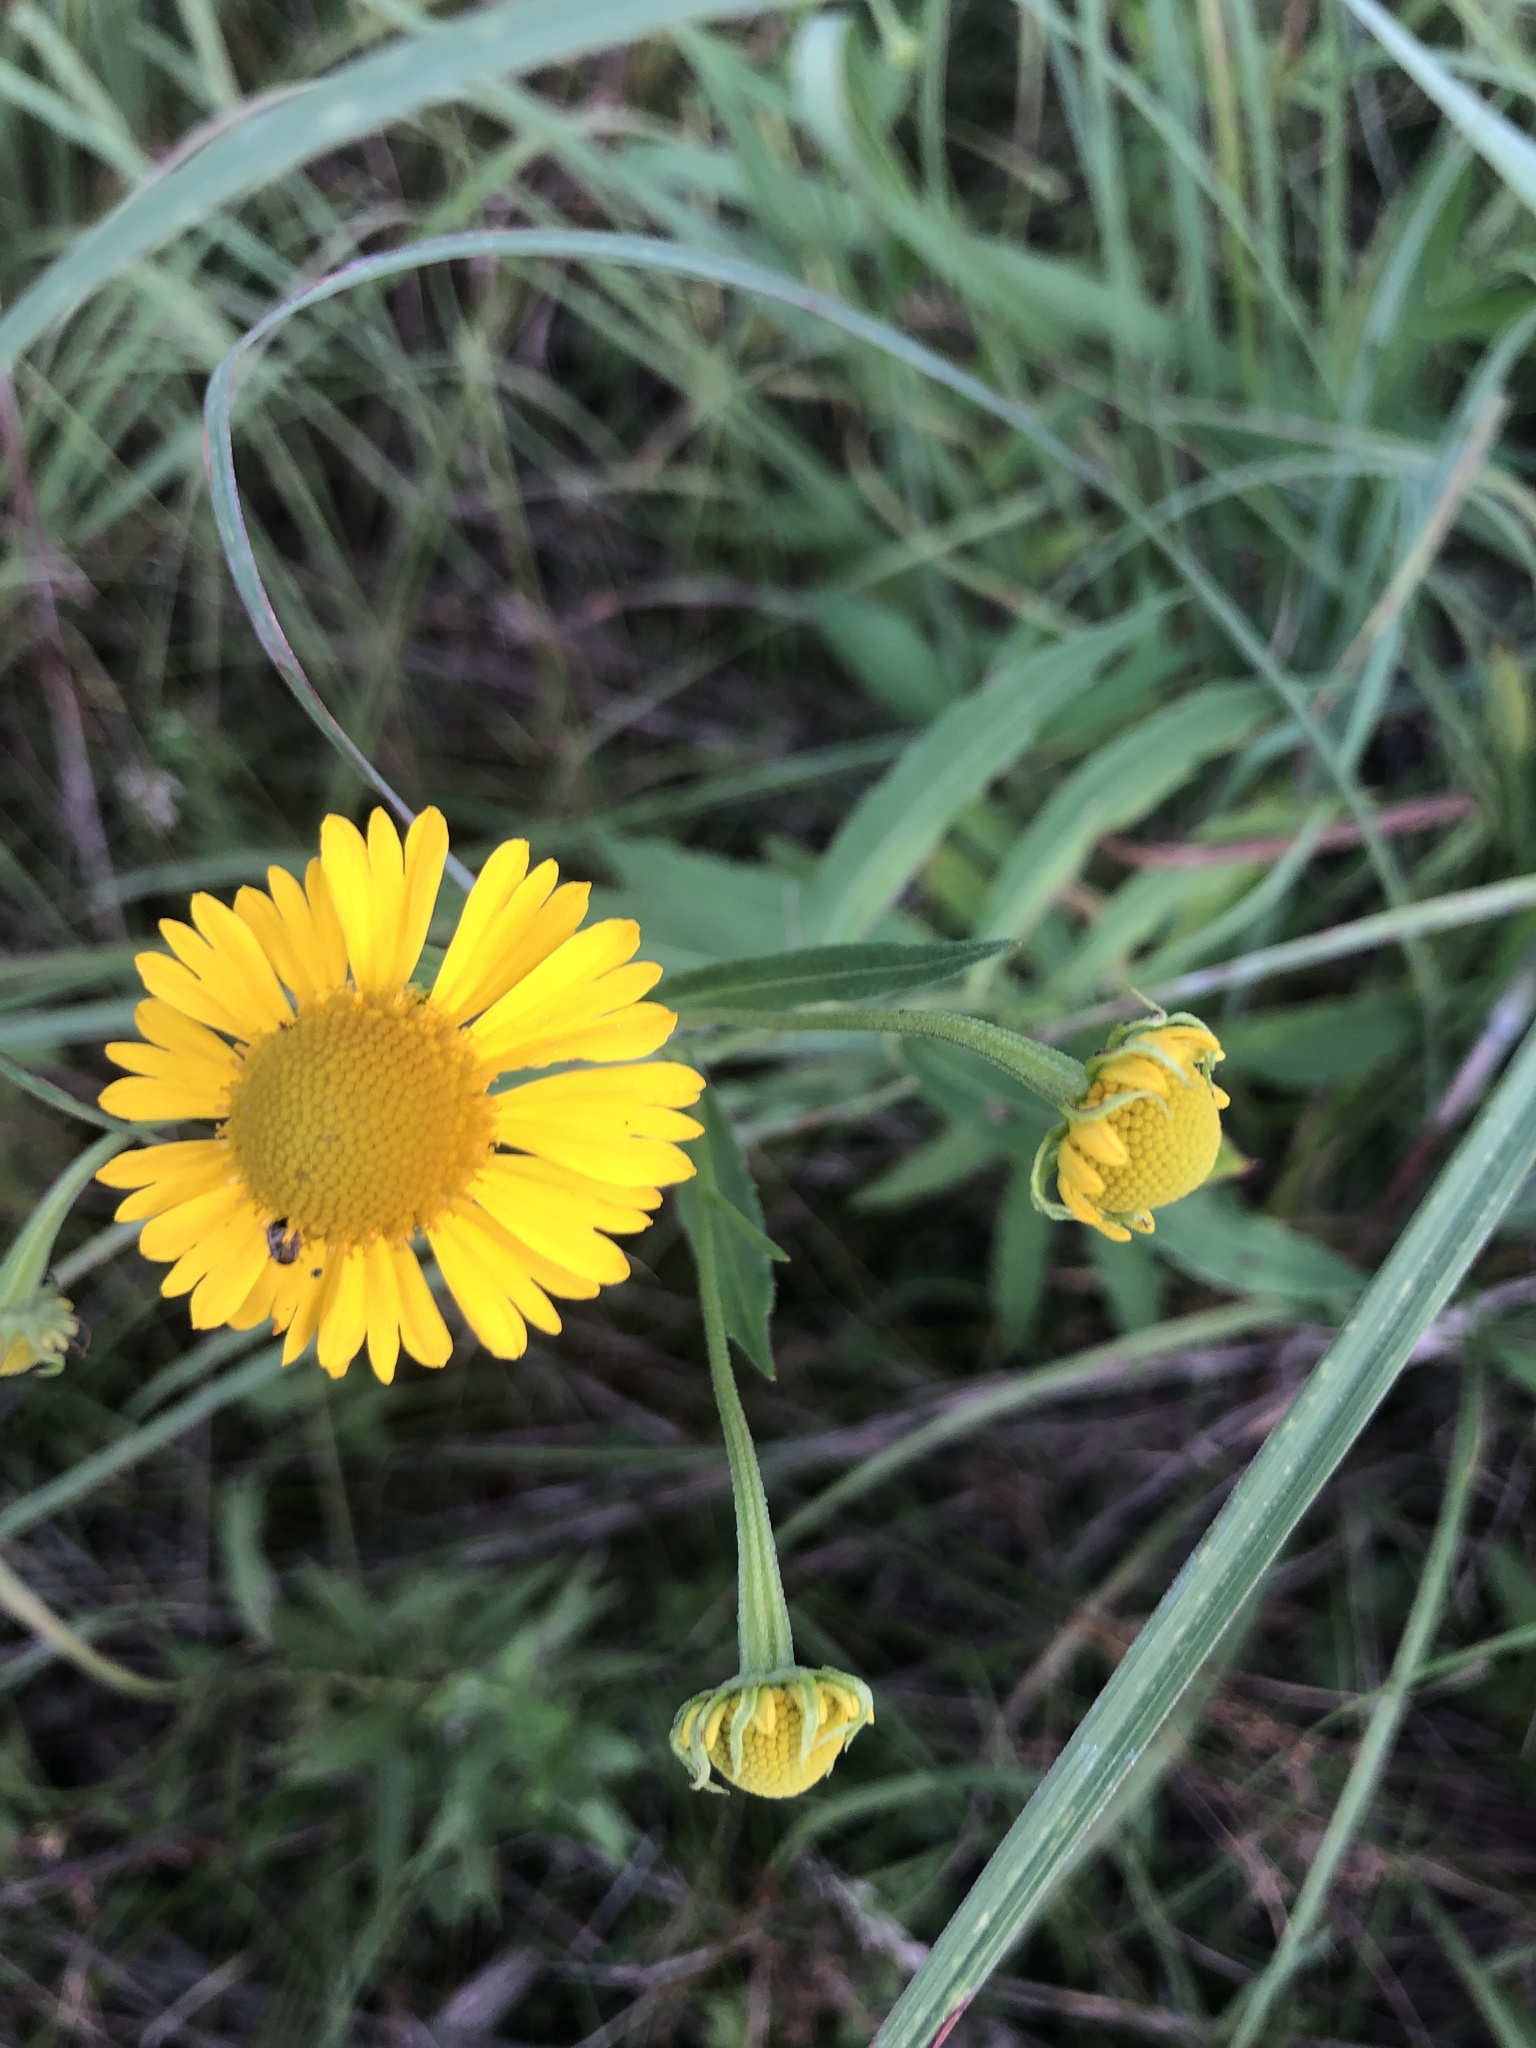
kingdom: Plantae
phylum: Tracheophyta
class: Magnoliopsida
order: Asterales
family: Asteraceae
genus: Helenium
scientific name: Helenium autumnale
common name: Sneezeweed
